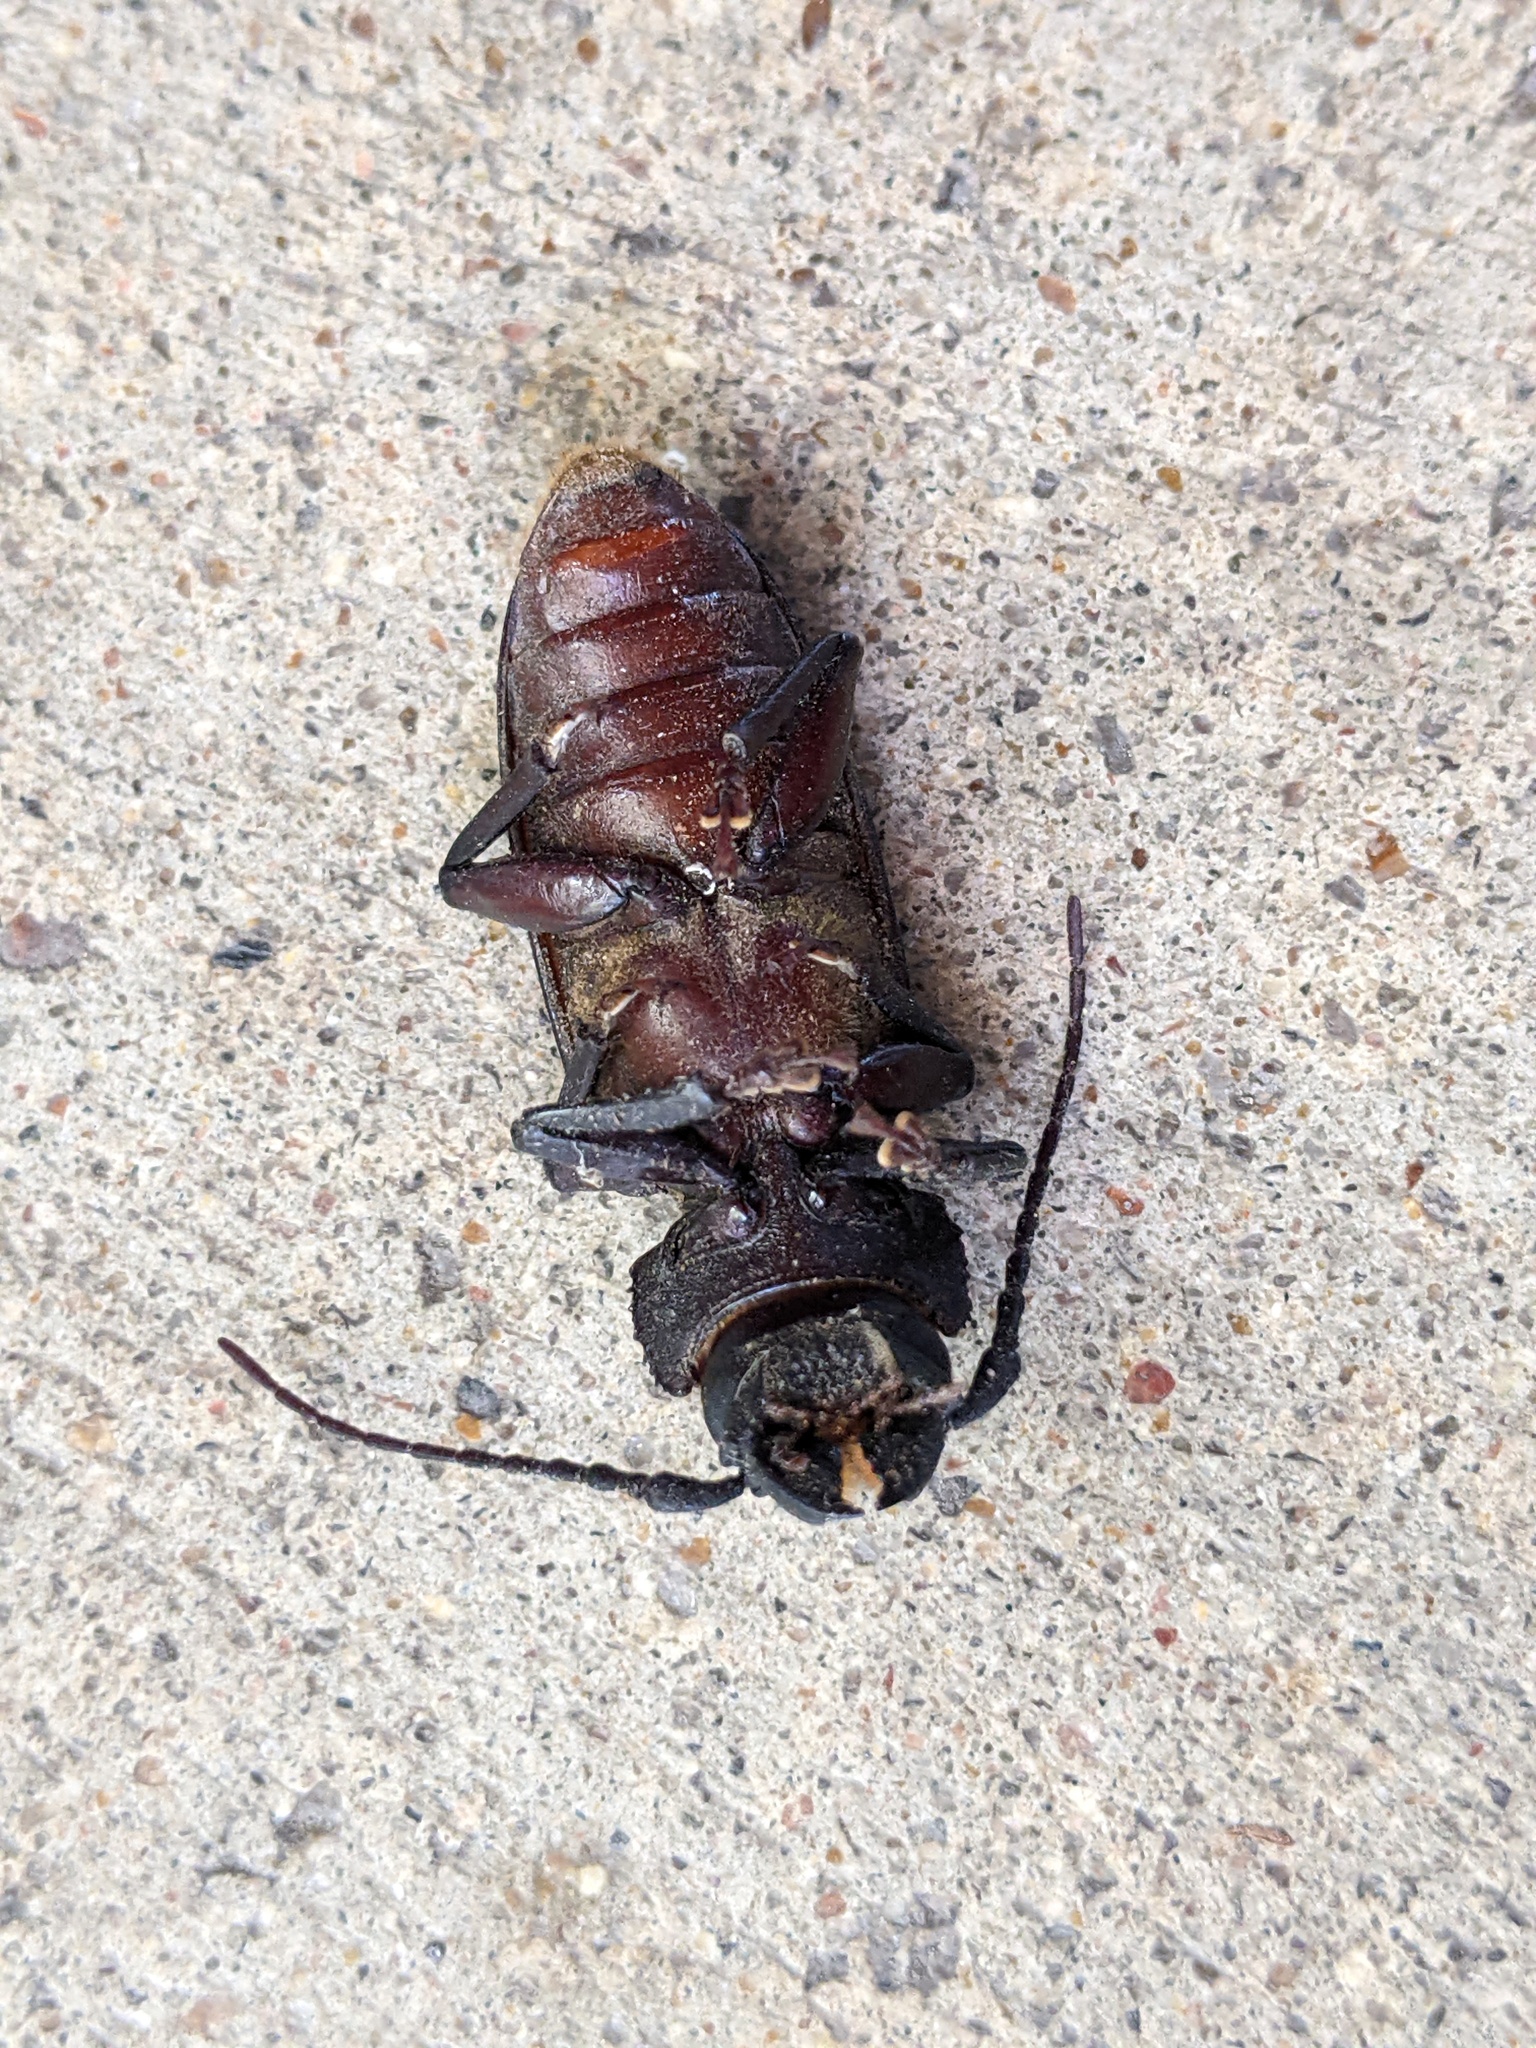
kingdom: Animalia
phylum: Arthropoda
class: Insecta
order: Coleoptera
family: Cerambycidae
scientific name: Cerambycidae
